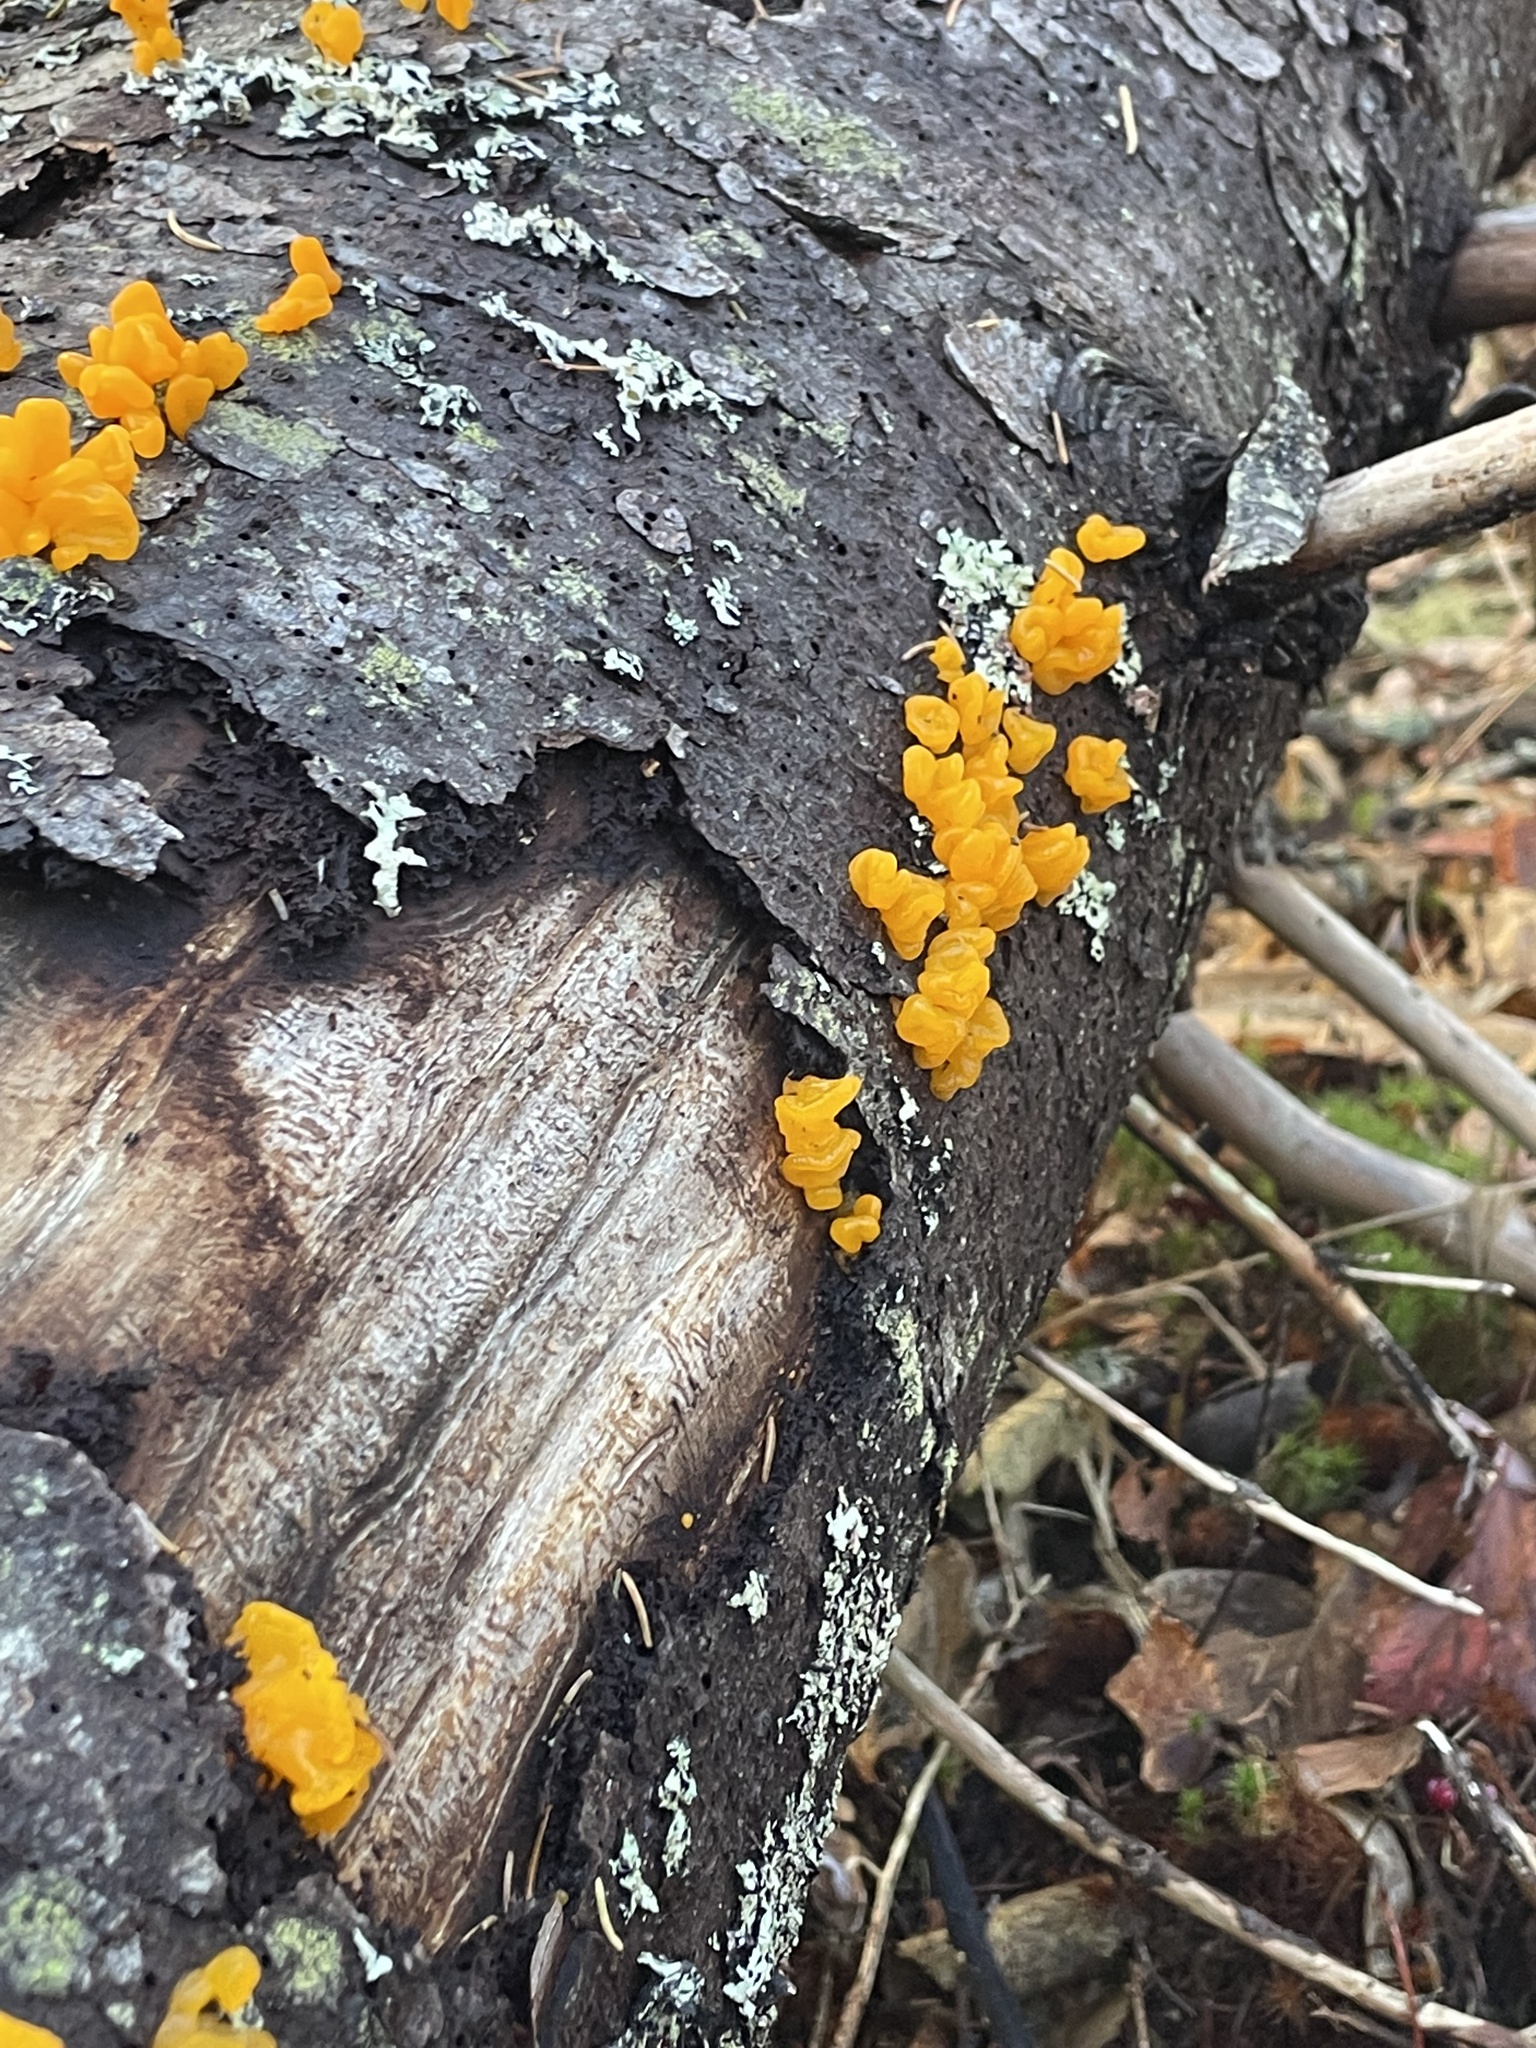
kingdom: Fungi
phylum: Basidiomycota
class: Dacrymycetes
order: Dacrymycetales
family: Dacrymycetaceae
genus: Dacrymyces
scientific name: Dacrymyces chrysospermus
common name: Orange jelly spot
